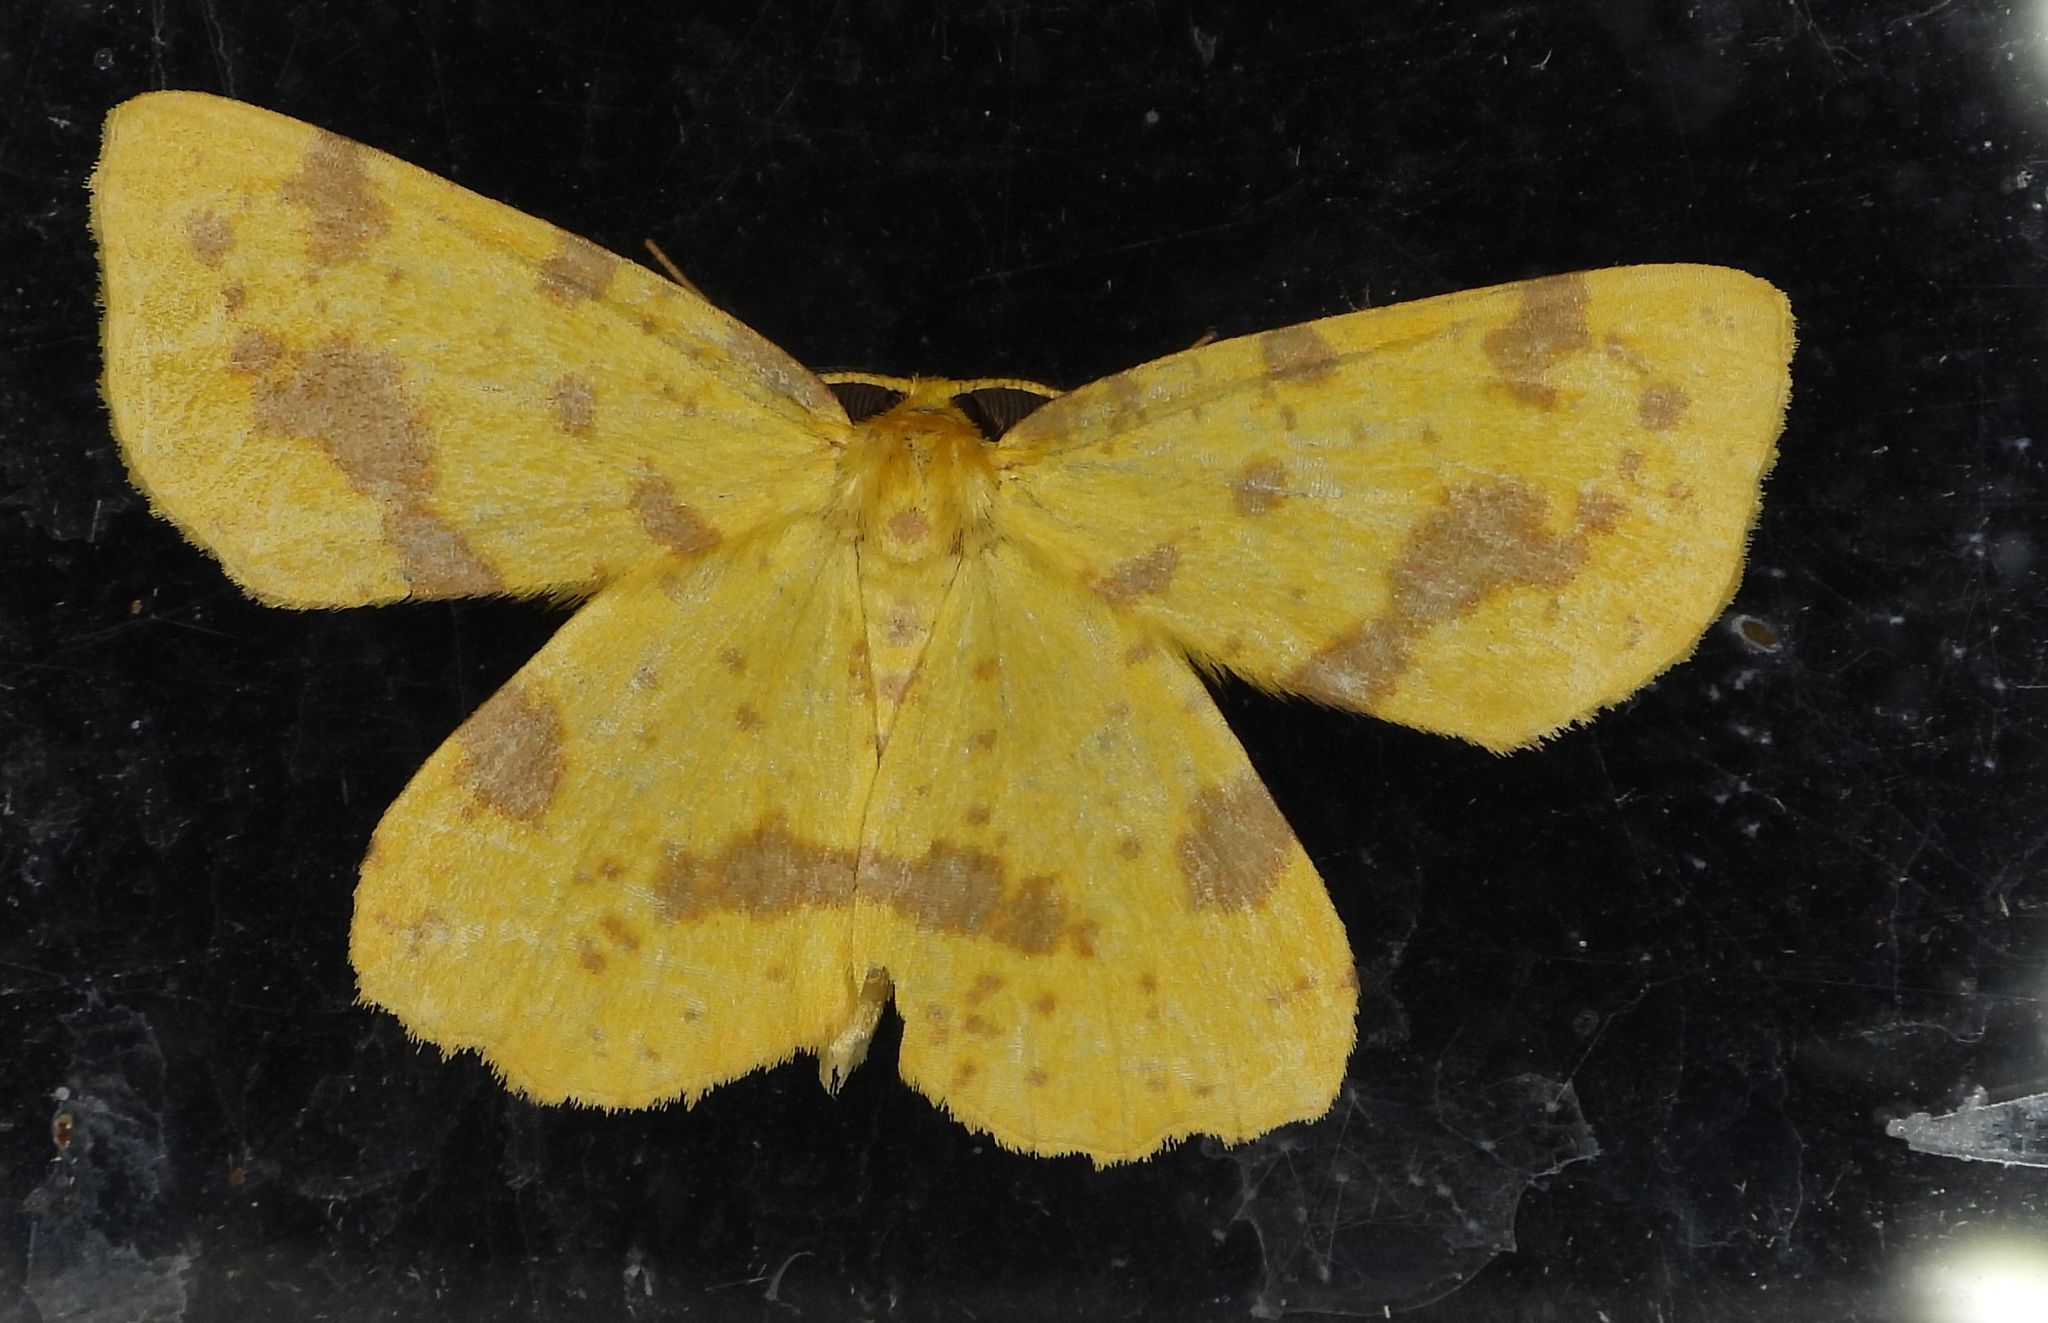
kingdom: Animalia
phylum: Arthropoda
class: Insecta
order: Lepidoptera
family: Geometridae
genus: Xanthotype
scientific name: Xanthotype
